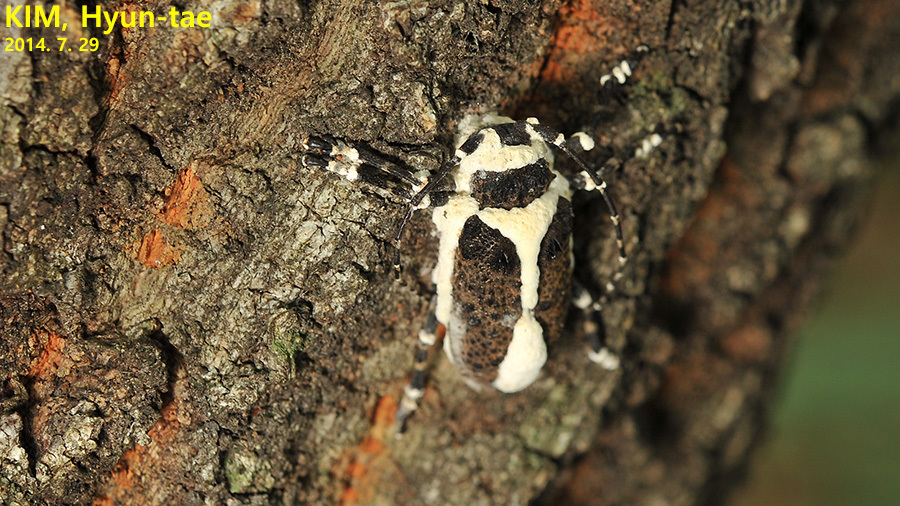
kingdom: Animalia
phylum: Arthropoda
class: Insecta
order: Coleoptera
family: Cerambycidae
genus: Moechotypa
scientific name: Moechotypa diphysis
